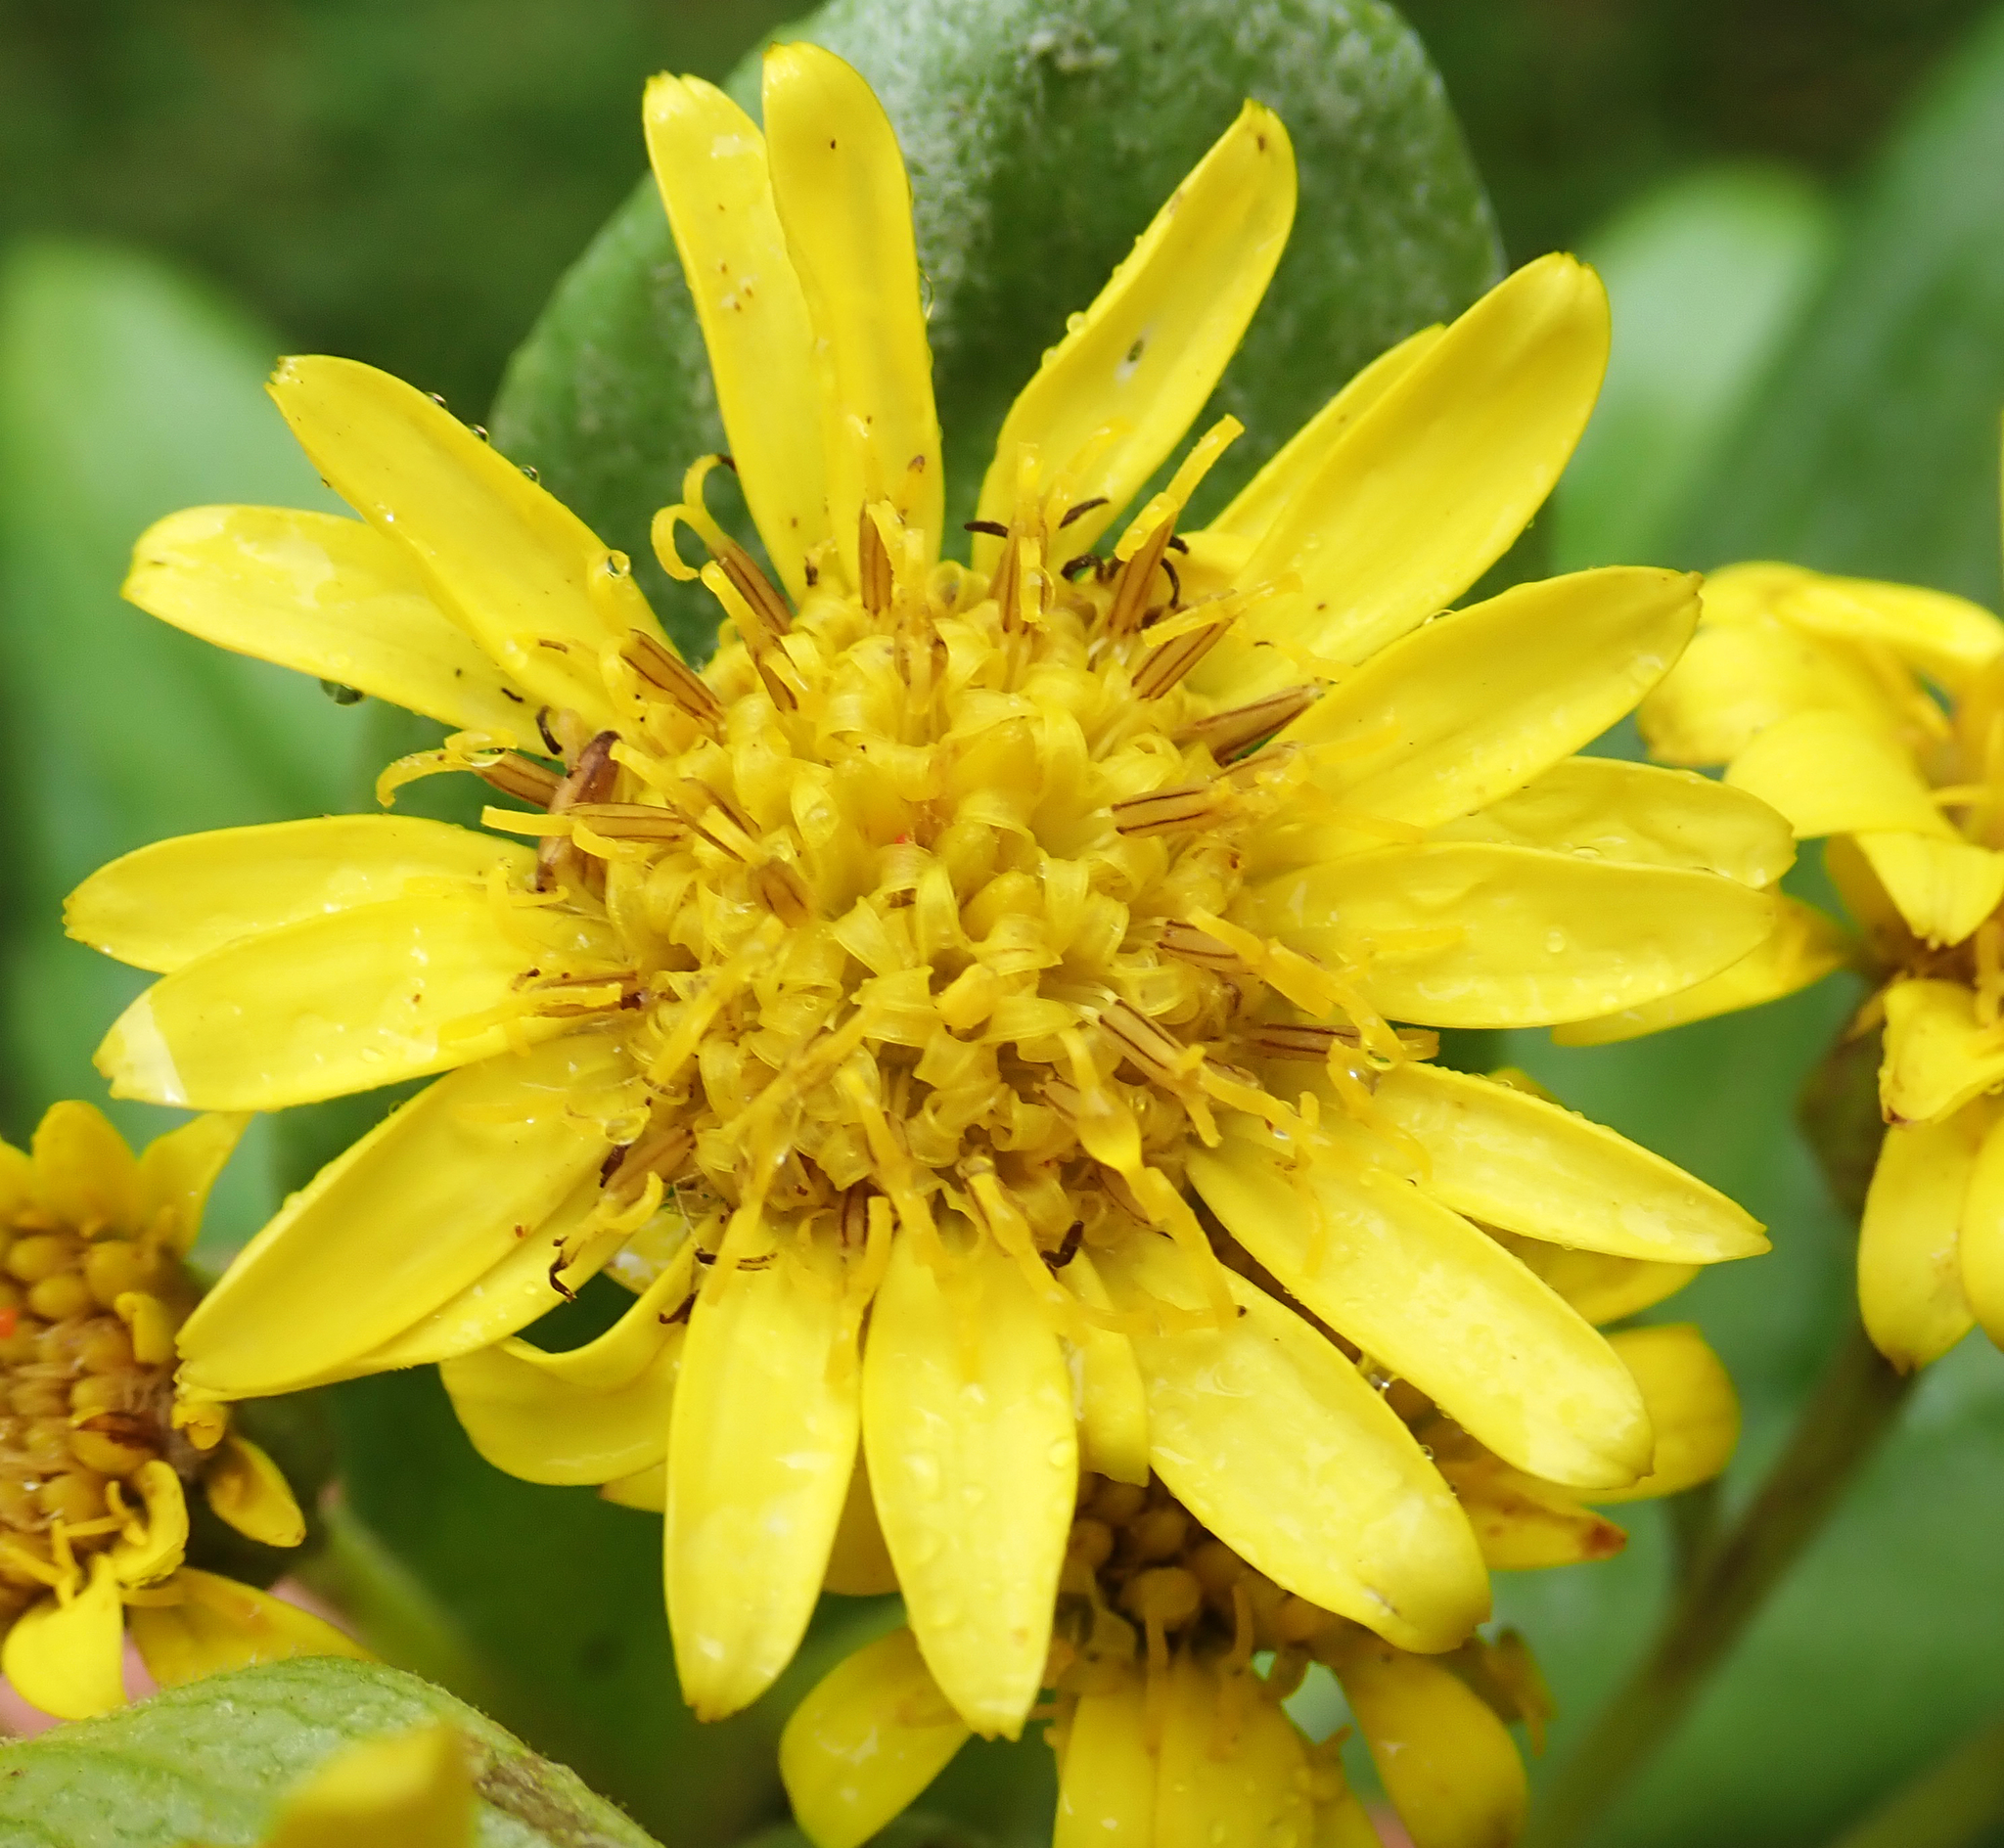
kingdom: Plantae
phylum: Tracheophyta
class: Magnoliopsida
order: Asterales
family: Asteraceae
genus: Brachyglottis
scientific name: Brachyglottis huntii
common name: Chatham island christmas tree
